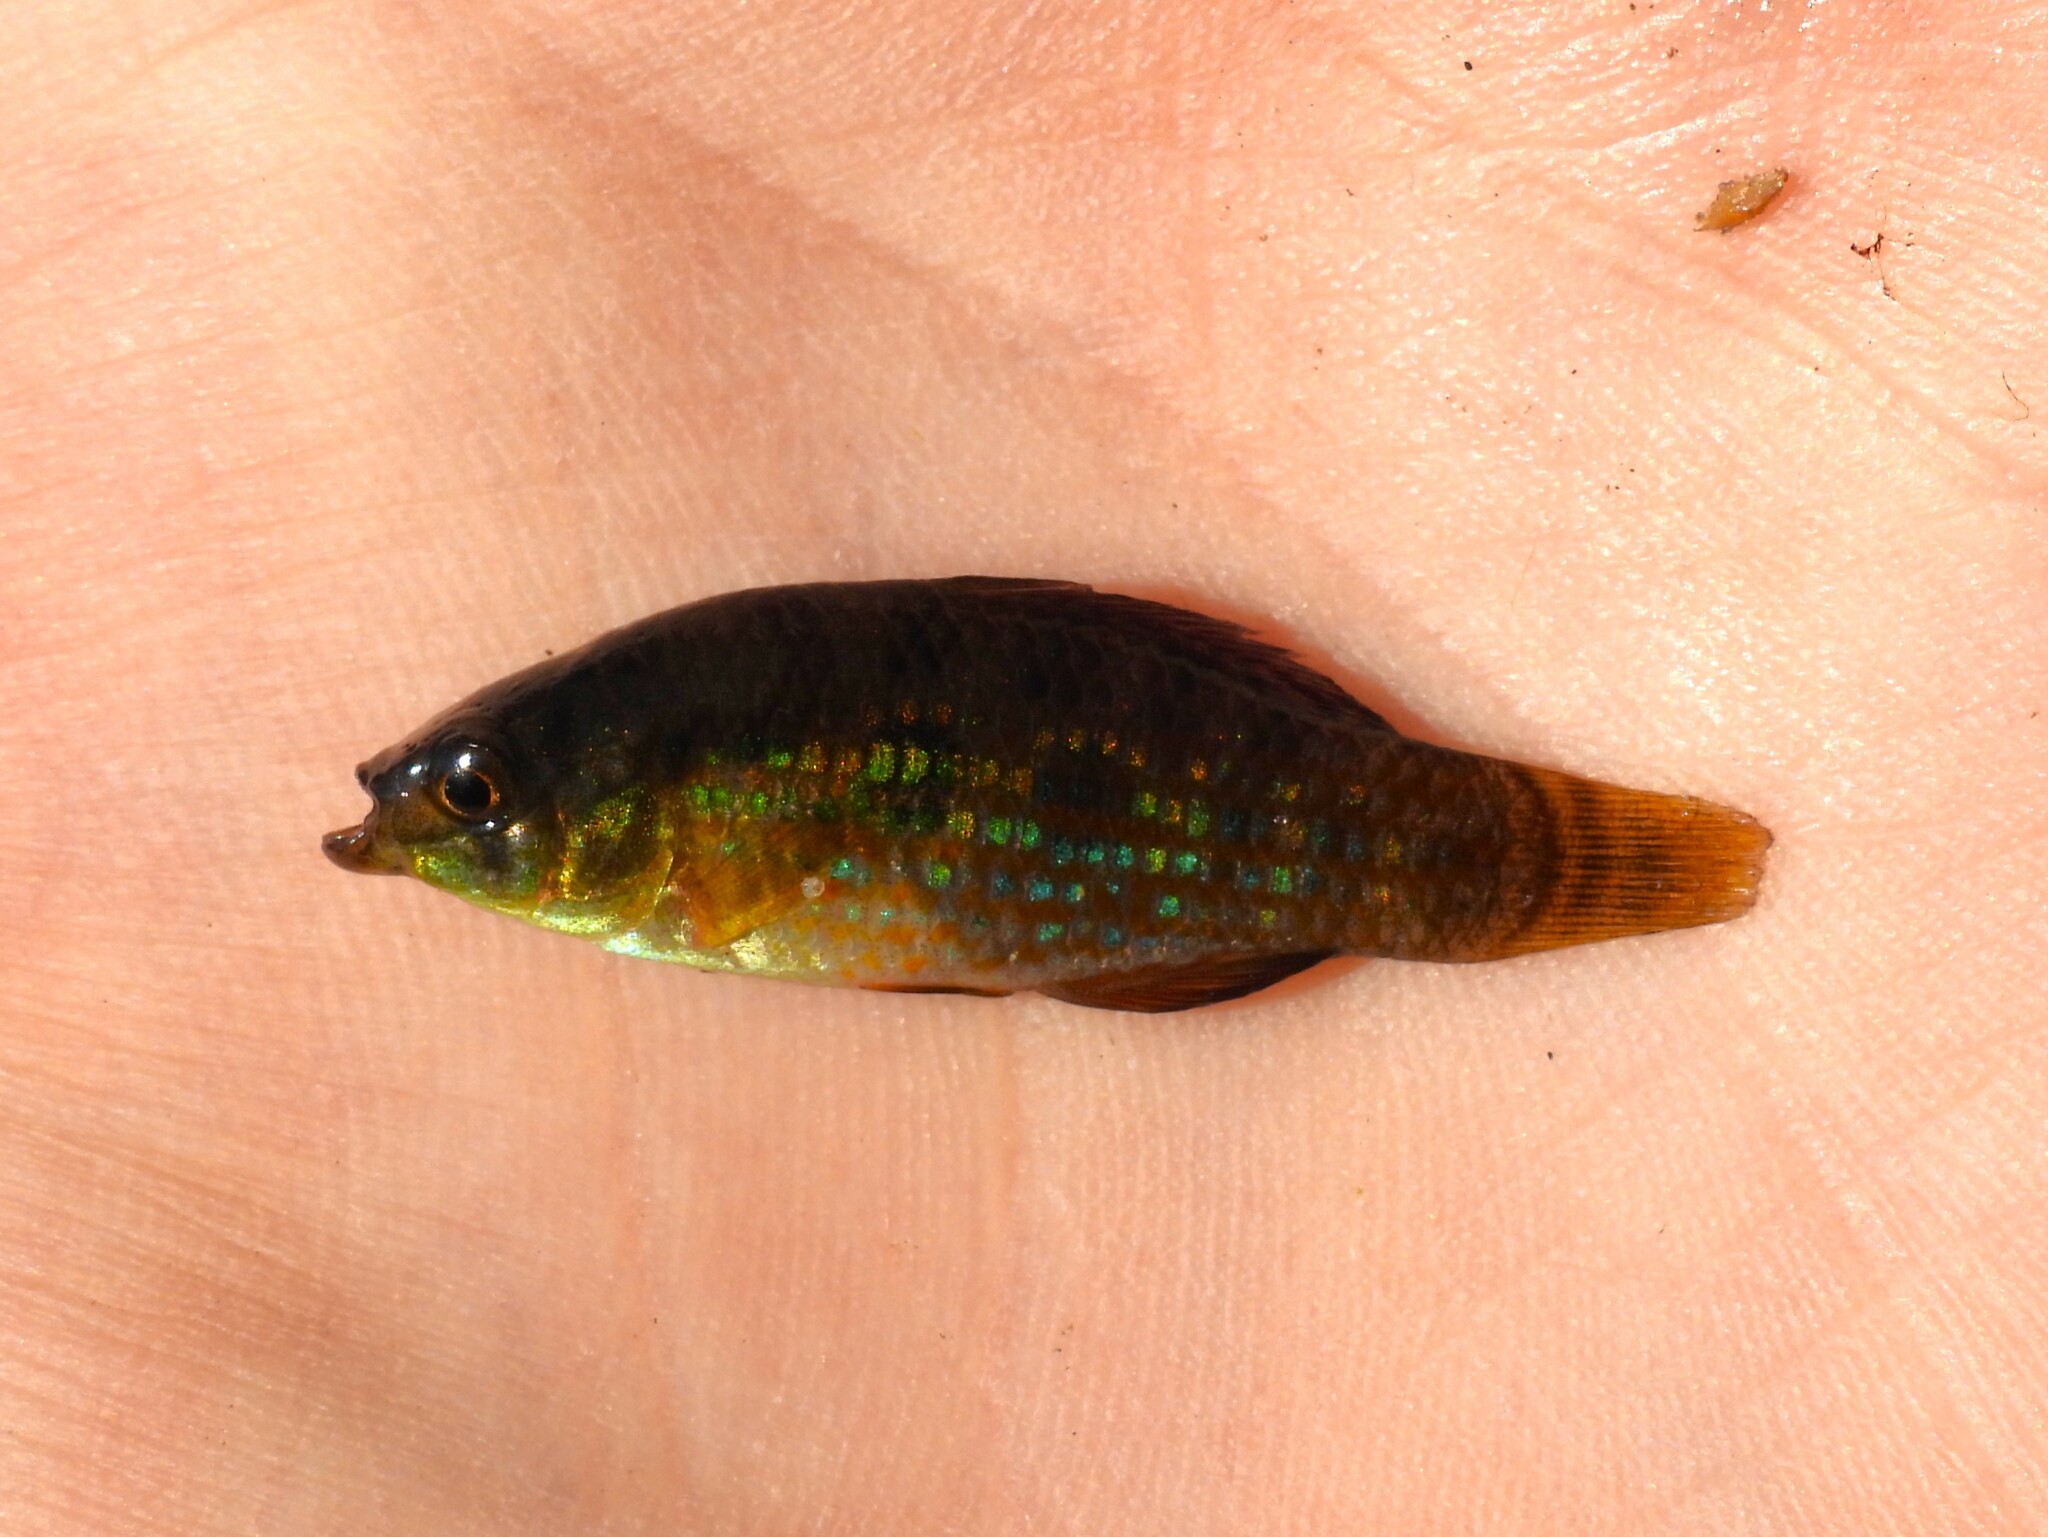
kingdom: Animalia
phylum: Chordata
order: Cyprinodontiformes
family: Cyprinodontidae
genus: Jordanella
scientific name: Jordanella floridae
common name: Flagfish
